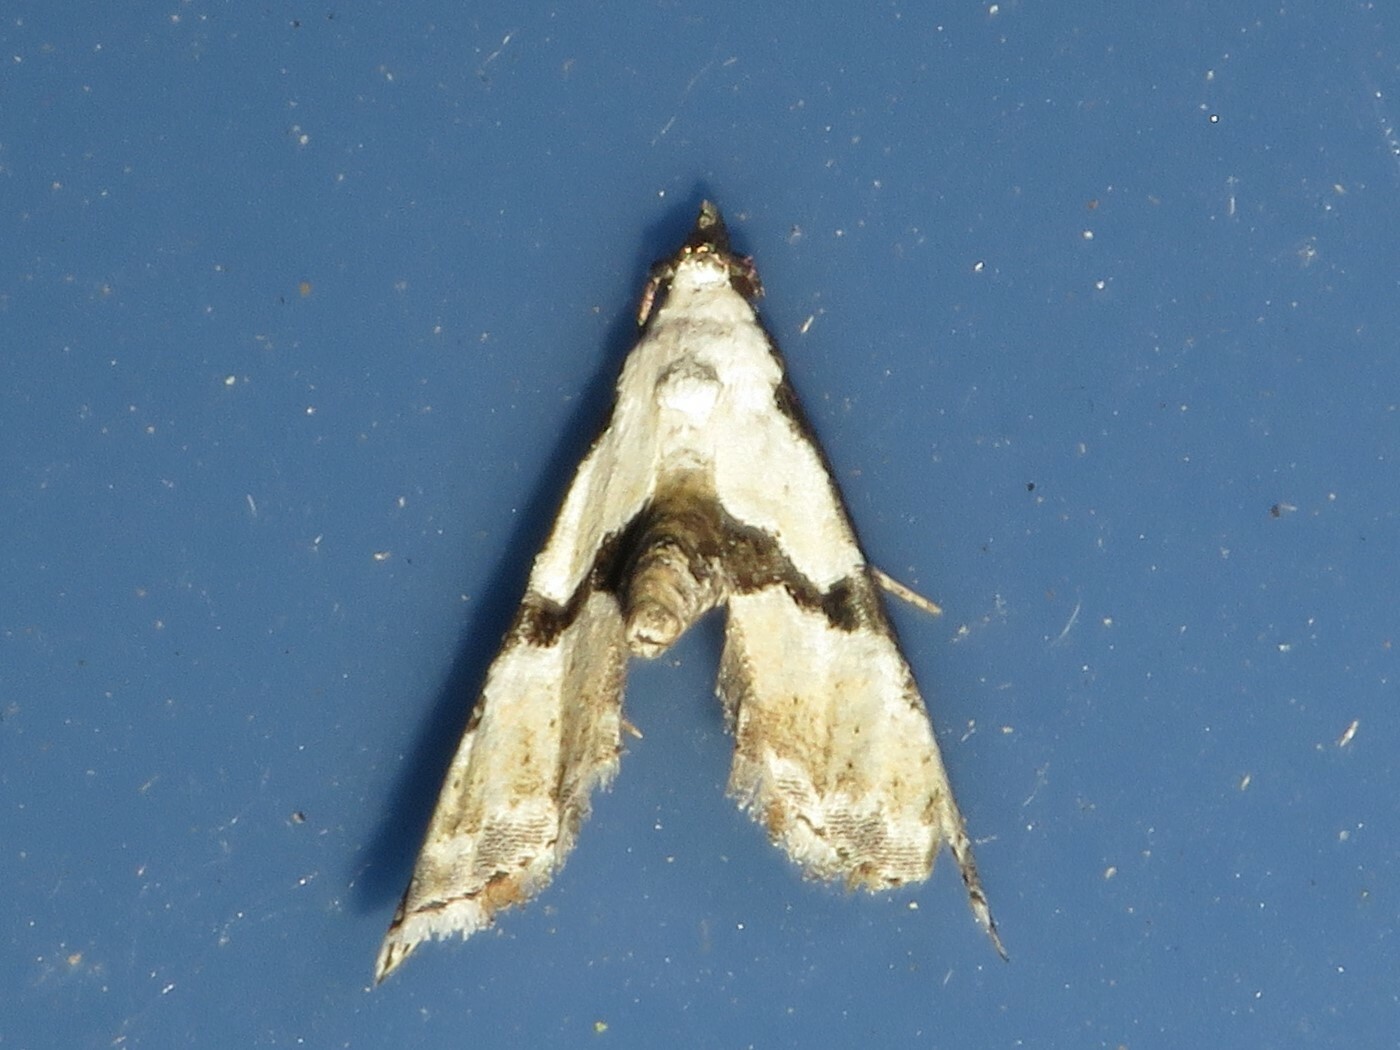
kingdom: Animalia
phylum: Arthropoda
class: Insecta
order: Lepidoptera
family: Noctuidae
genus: Nigetia
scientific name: Nigetia formosalis
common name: Thin-winged owlet
